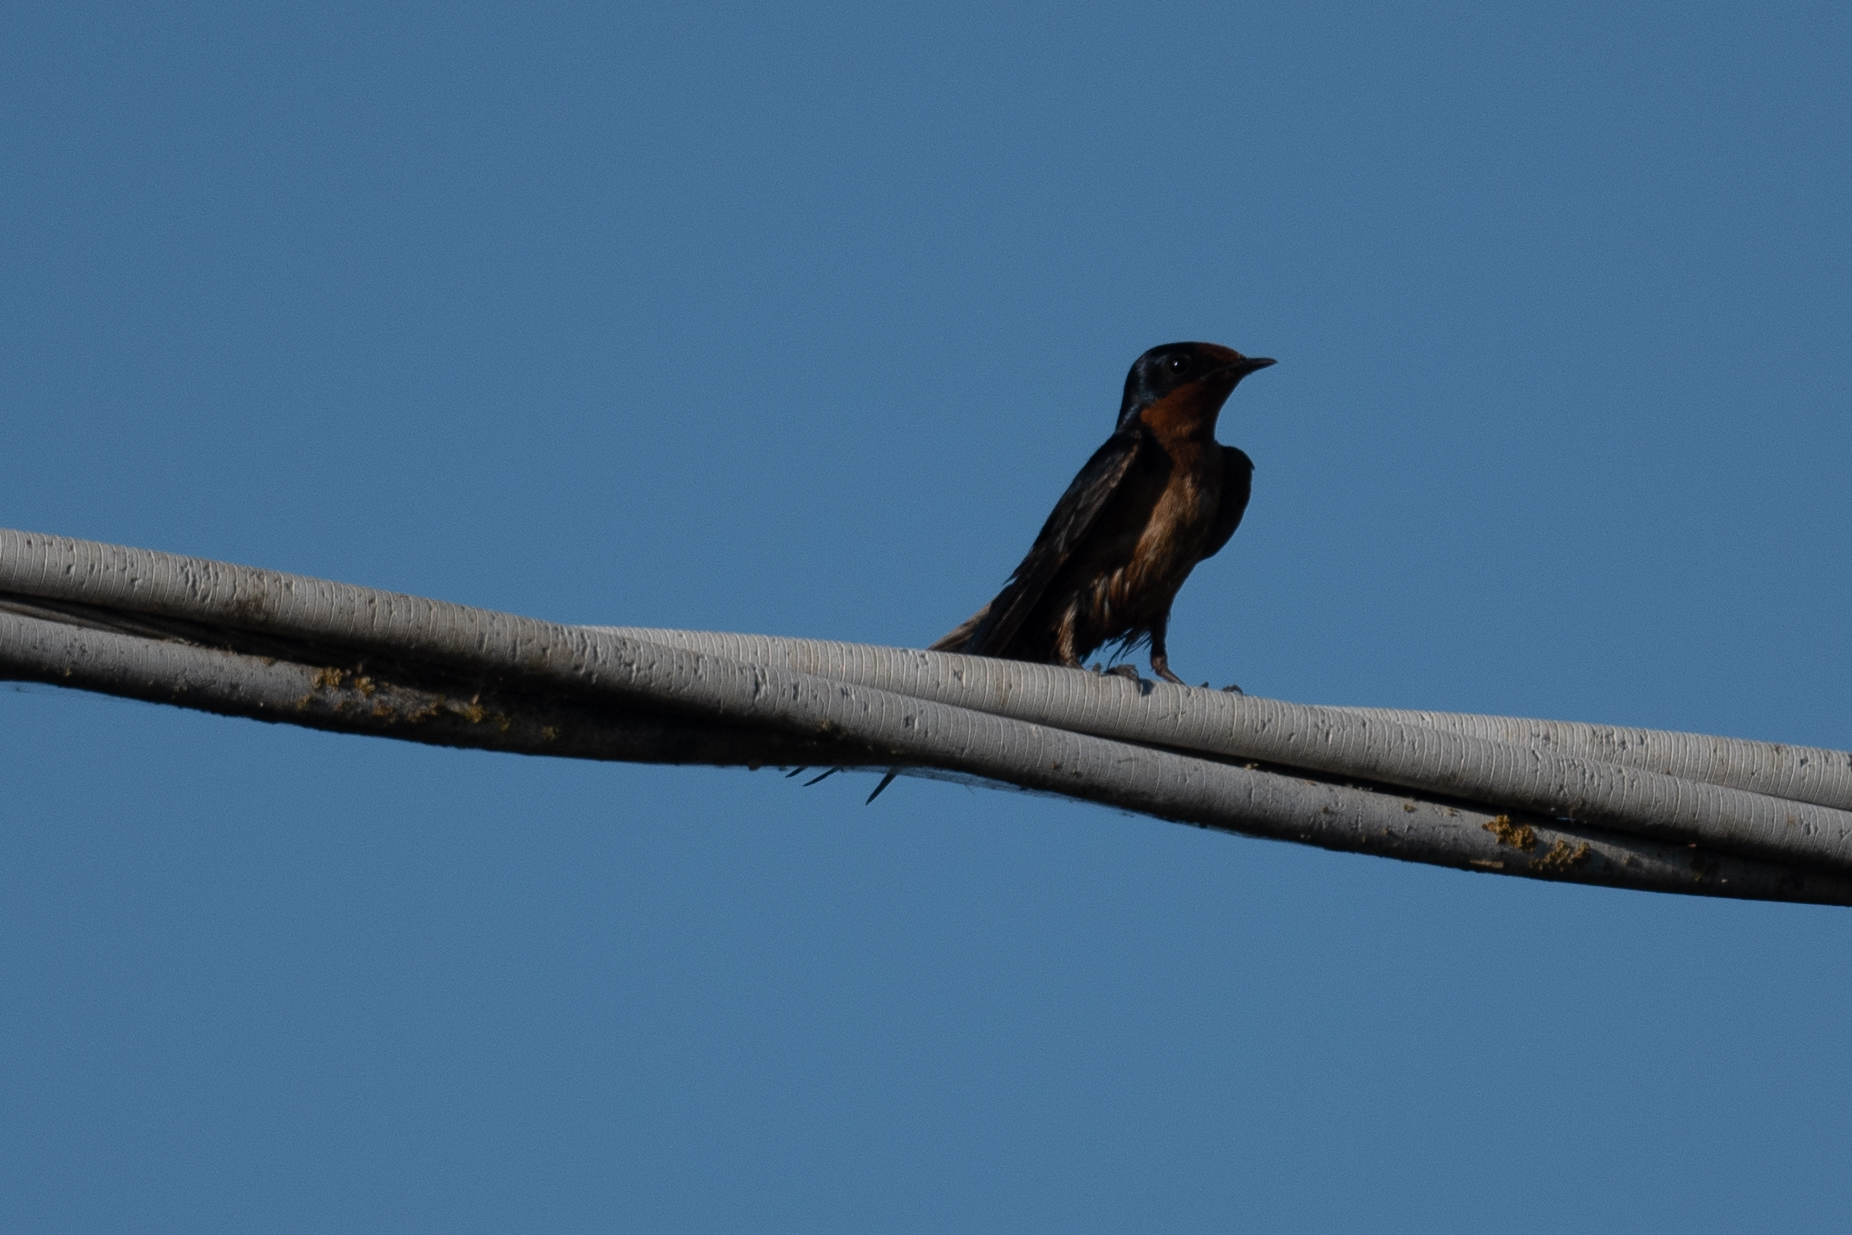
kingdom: Animalia
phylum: Chordata
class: Aves
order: Passeriformes
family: Hirundinidae
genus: Hirundo
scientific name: Hirundo rustica
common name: Barn swallow
